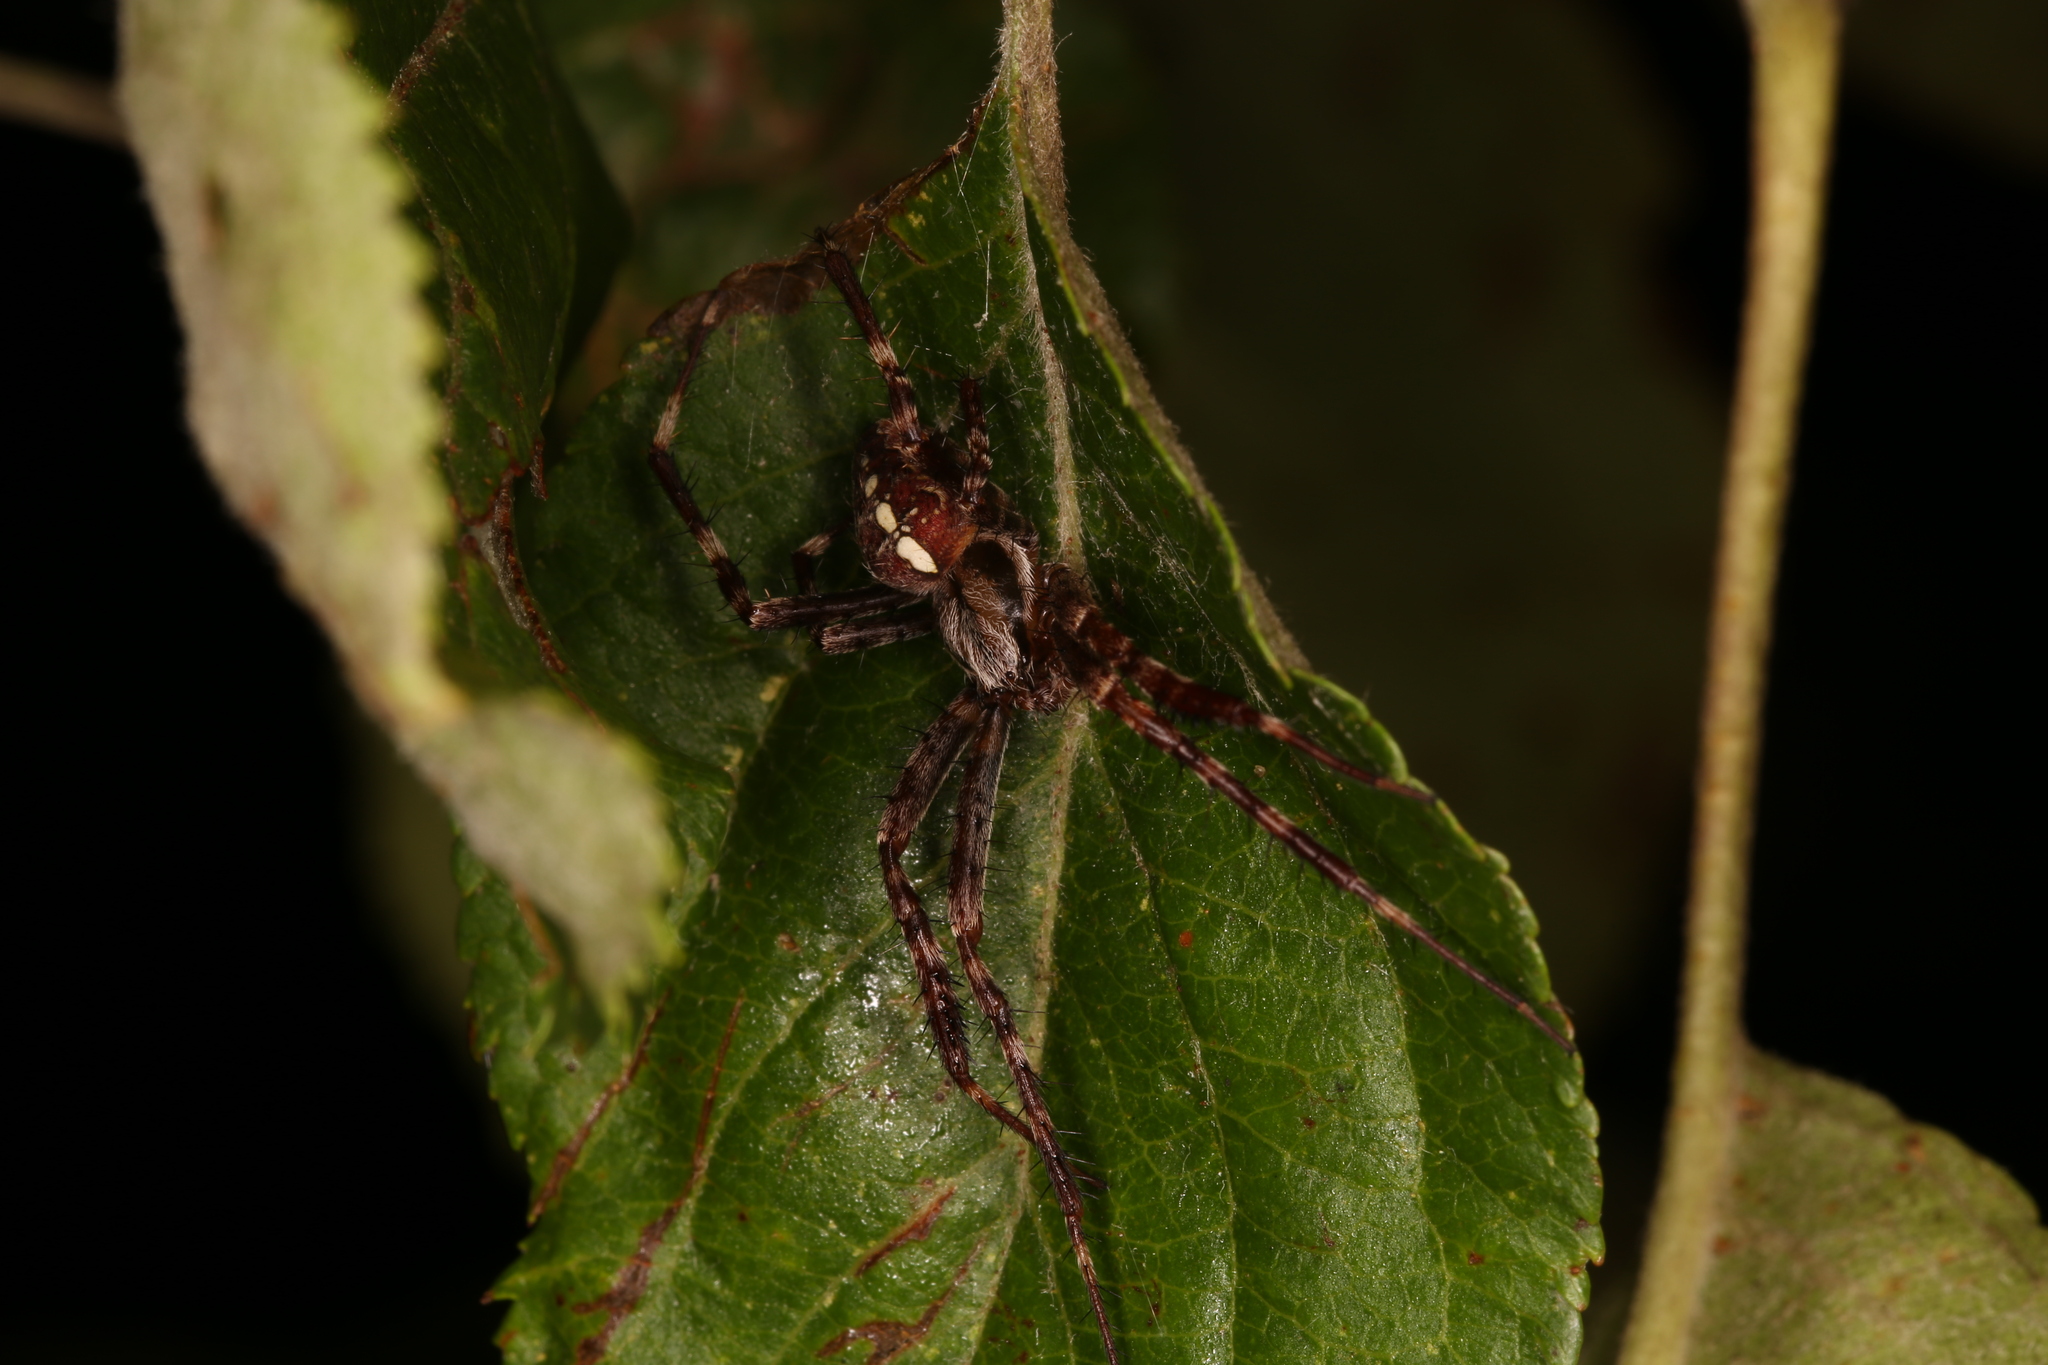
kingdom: Animalia
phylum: Arthropoda
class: Arachnida
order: Araneae
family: Araneidae
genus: Araneus
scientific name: Araneus diadematus
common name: Cross orbweaver
